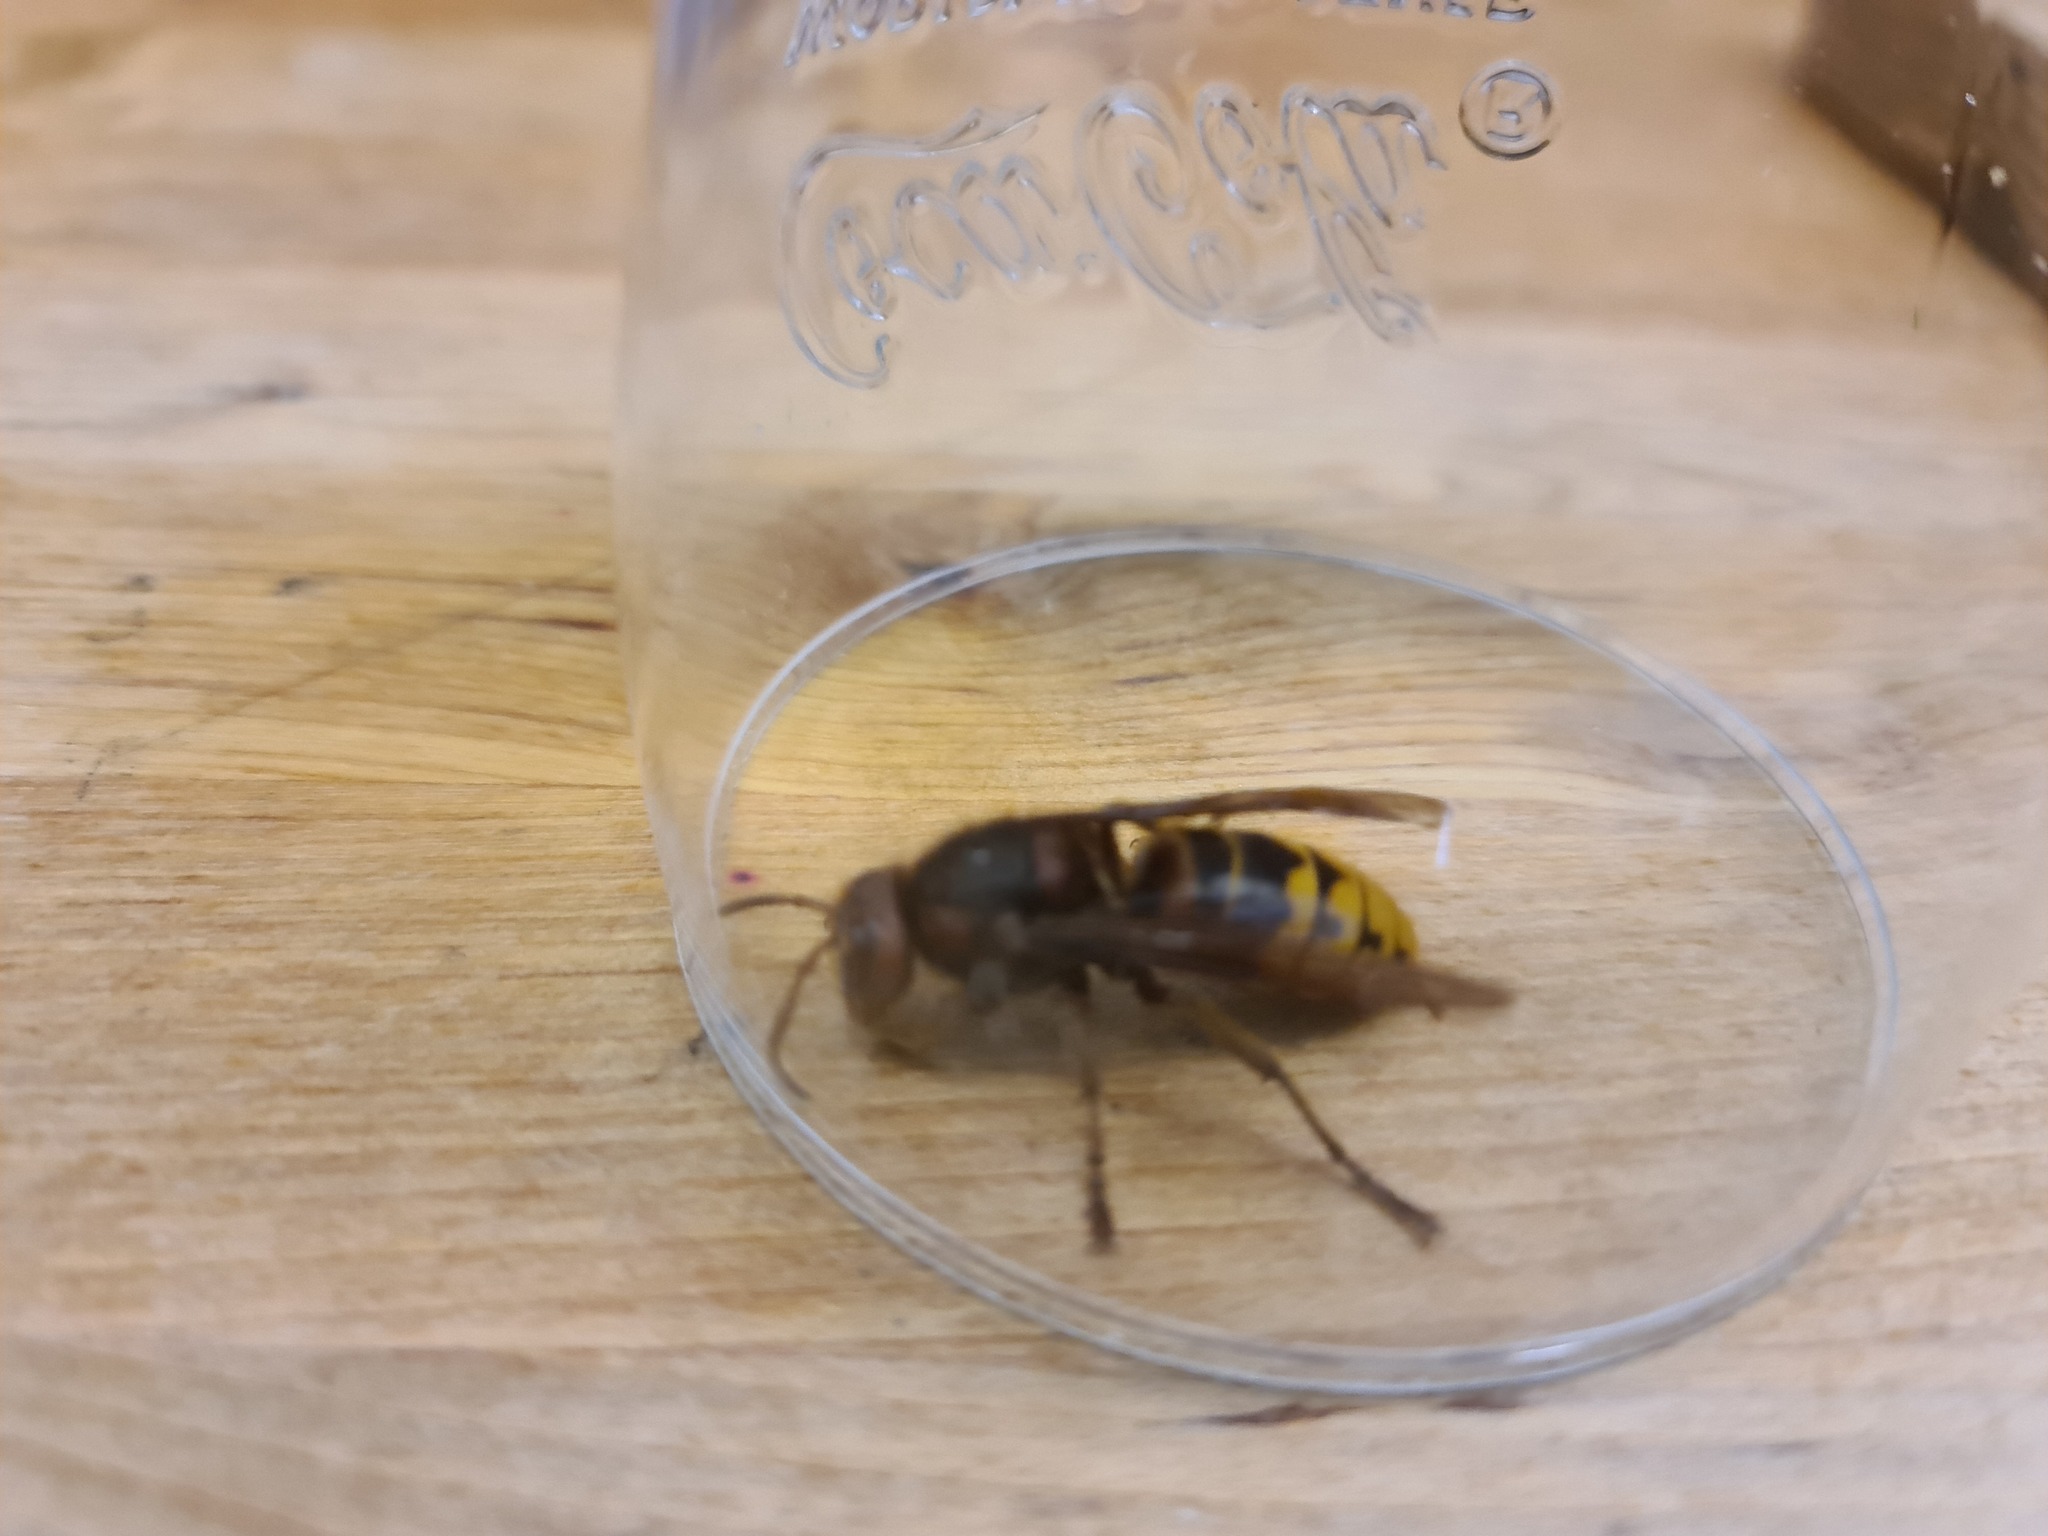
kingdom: Animalia
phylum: Arthropoda
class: Insecta
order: Hymenoptera
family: Vespidae
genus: Vespa
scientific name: Vespa crabro
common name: Hornet
